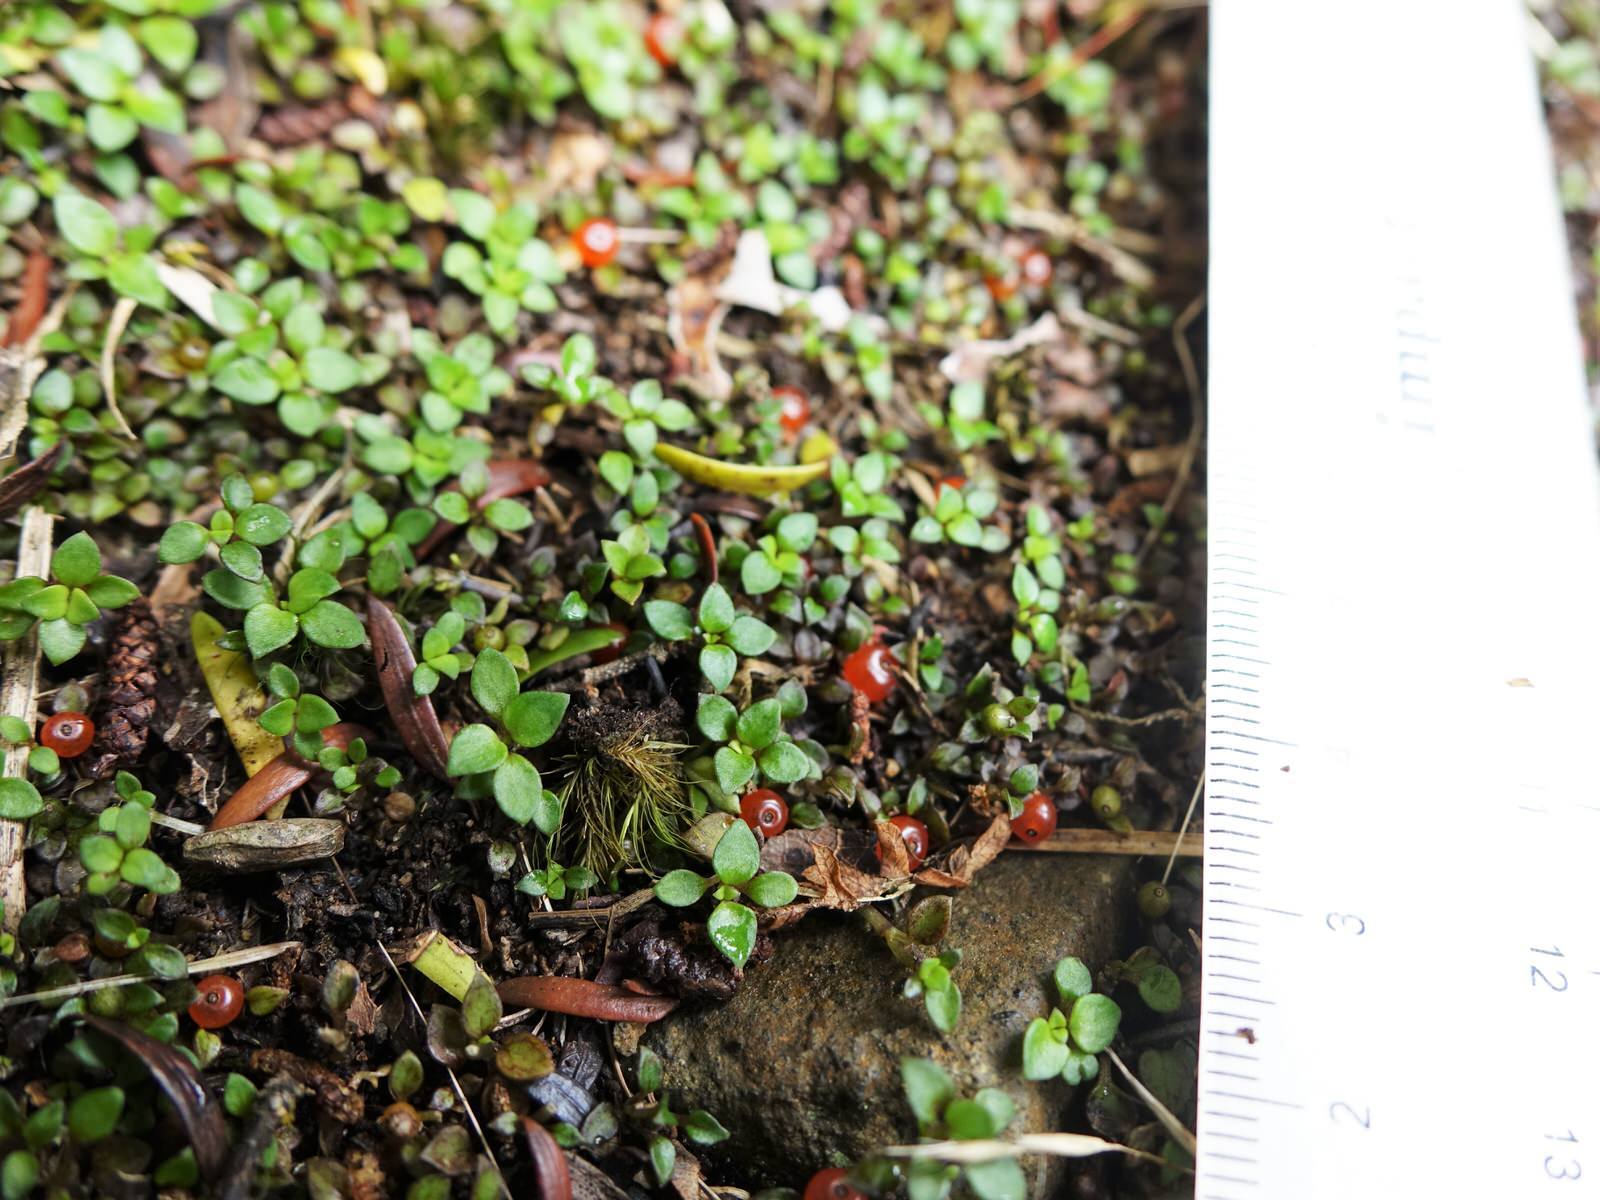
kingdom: Plantae
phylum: Tracheophyta
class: Magnoliopsida
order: Gentianales
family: Rubiaceae
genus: Nertera
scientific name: Nertera granadensis
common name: Beadplant
